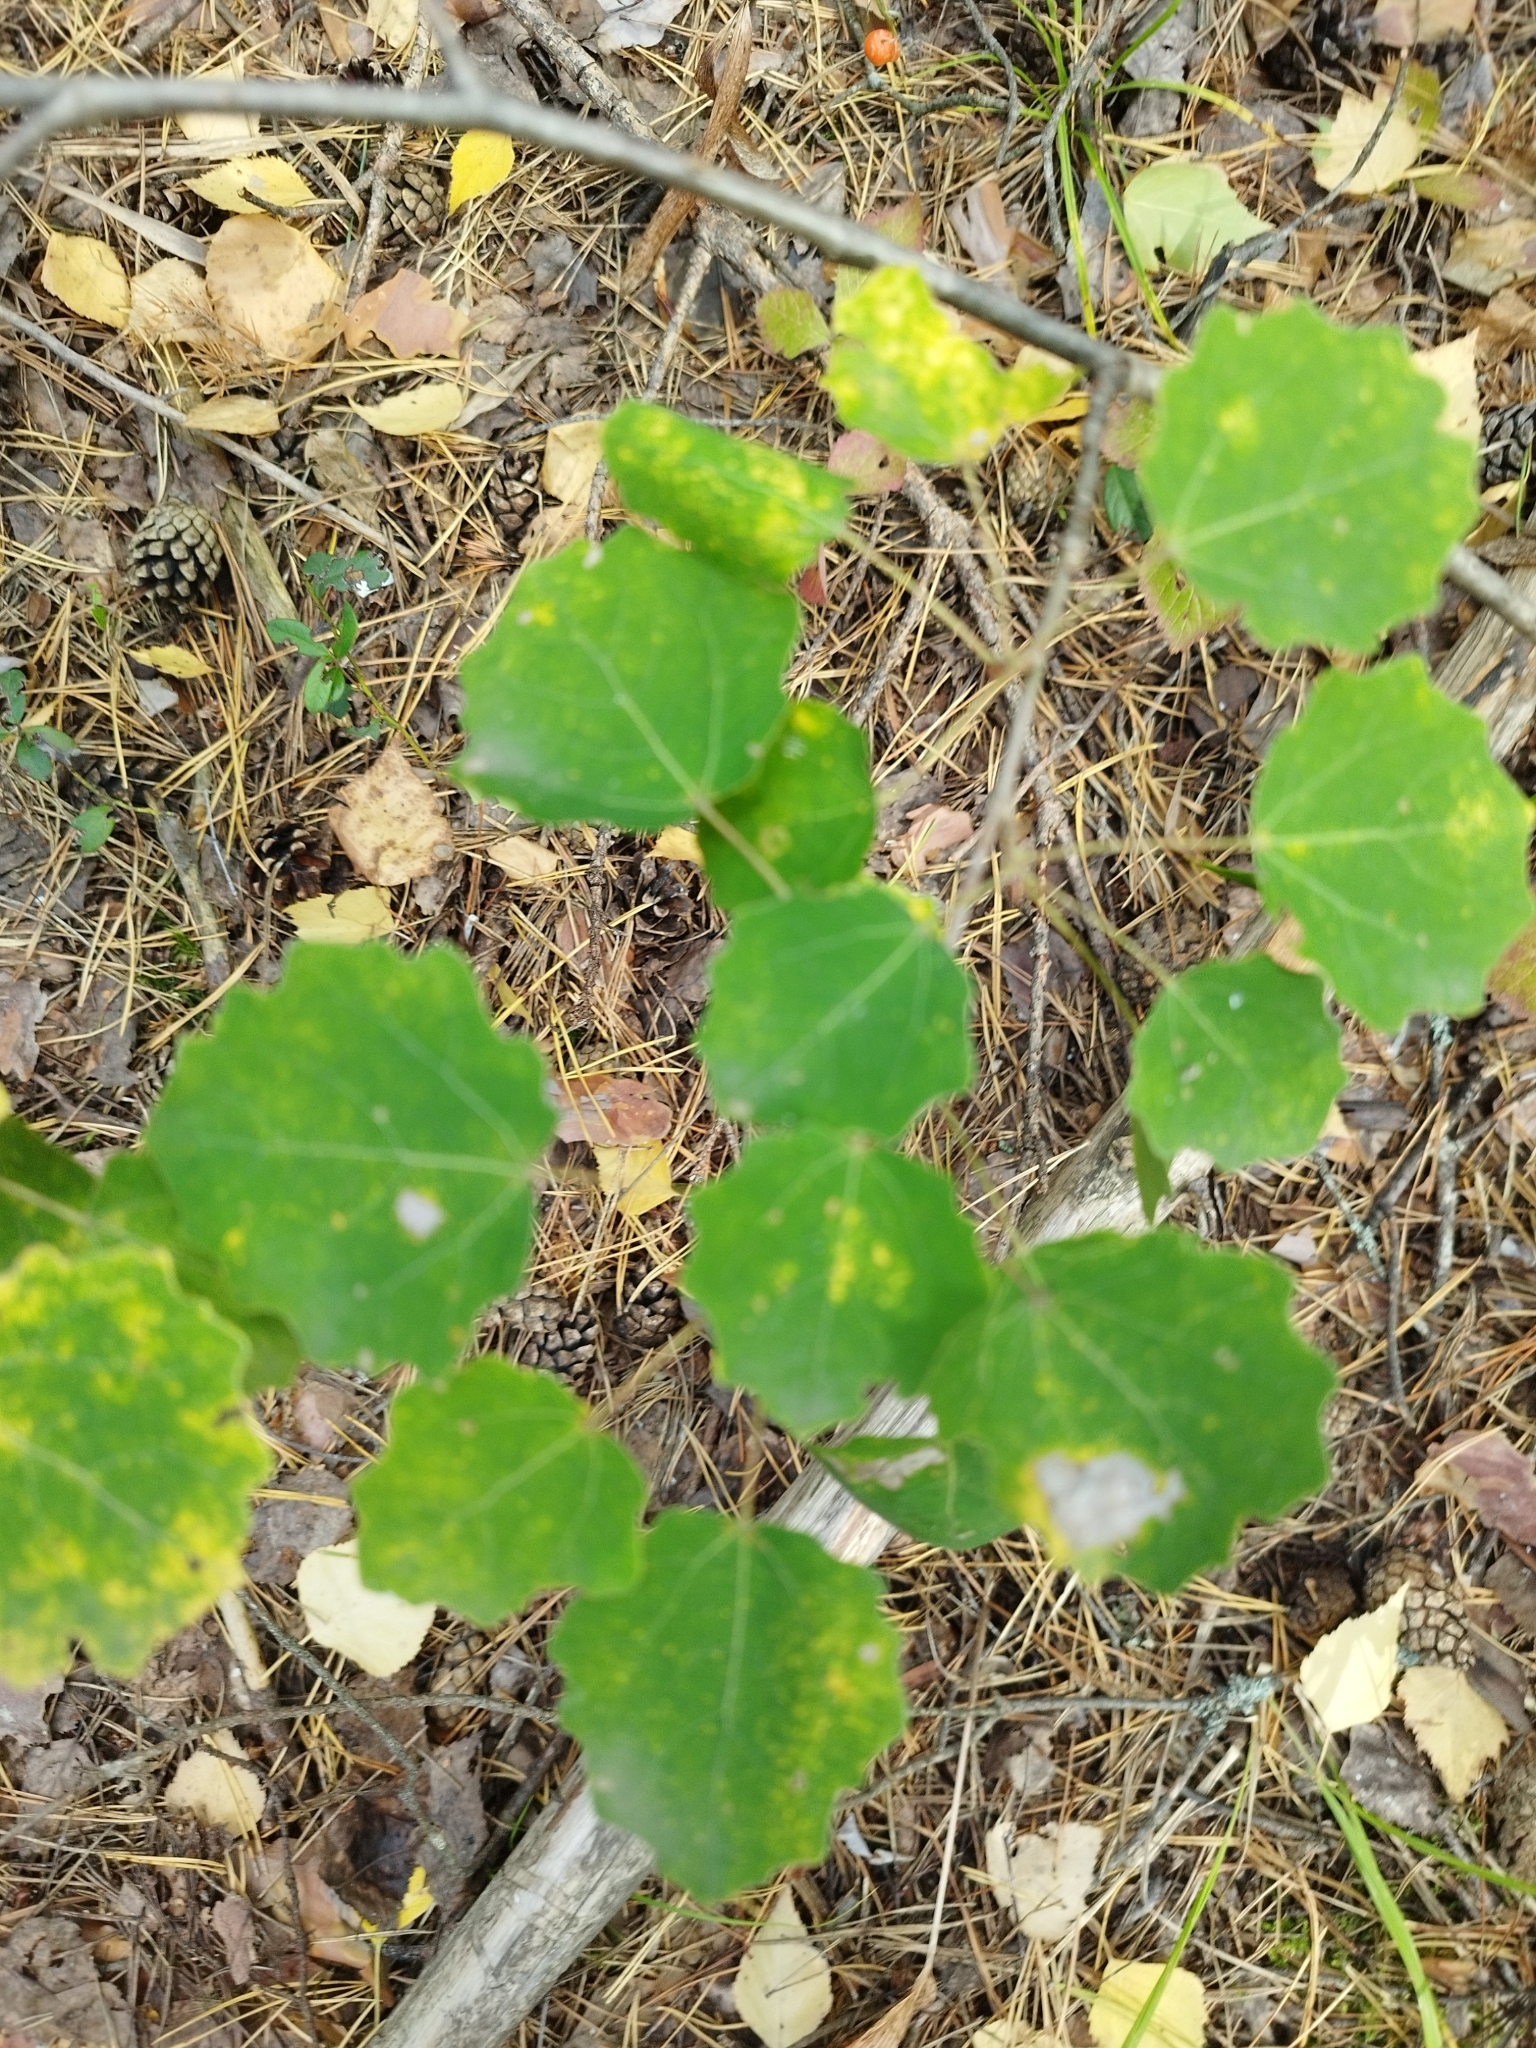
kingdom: Plantae
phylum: Tracheophyta
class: Magnoliopsida
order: Malpighiales
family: Salicaceae
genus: Populus
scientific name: Populus tremula
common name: European aspen
